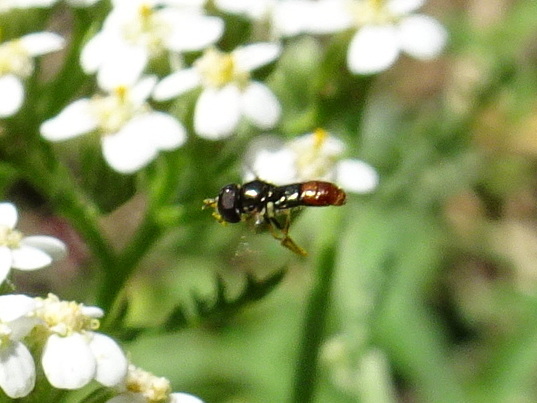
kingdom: Animalia
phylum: Arthropoda
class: Insecta
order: Diptera
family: Syrphidae
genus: Paragus
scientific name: Paragus haemorrhous
